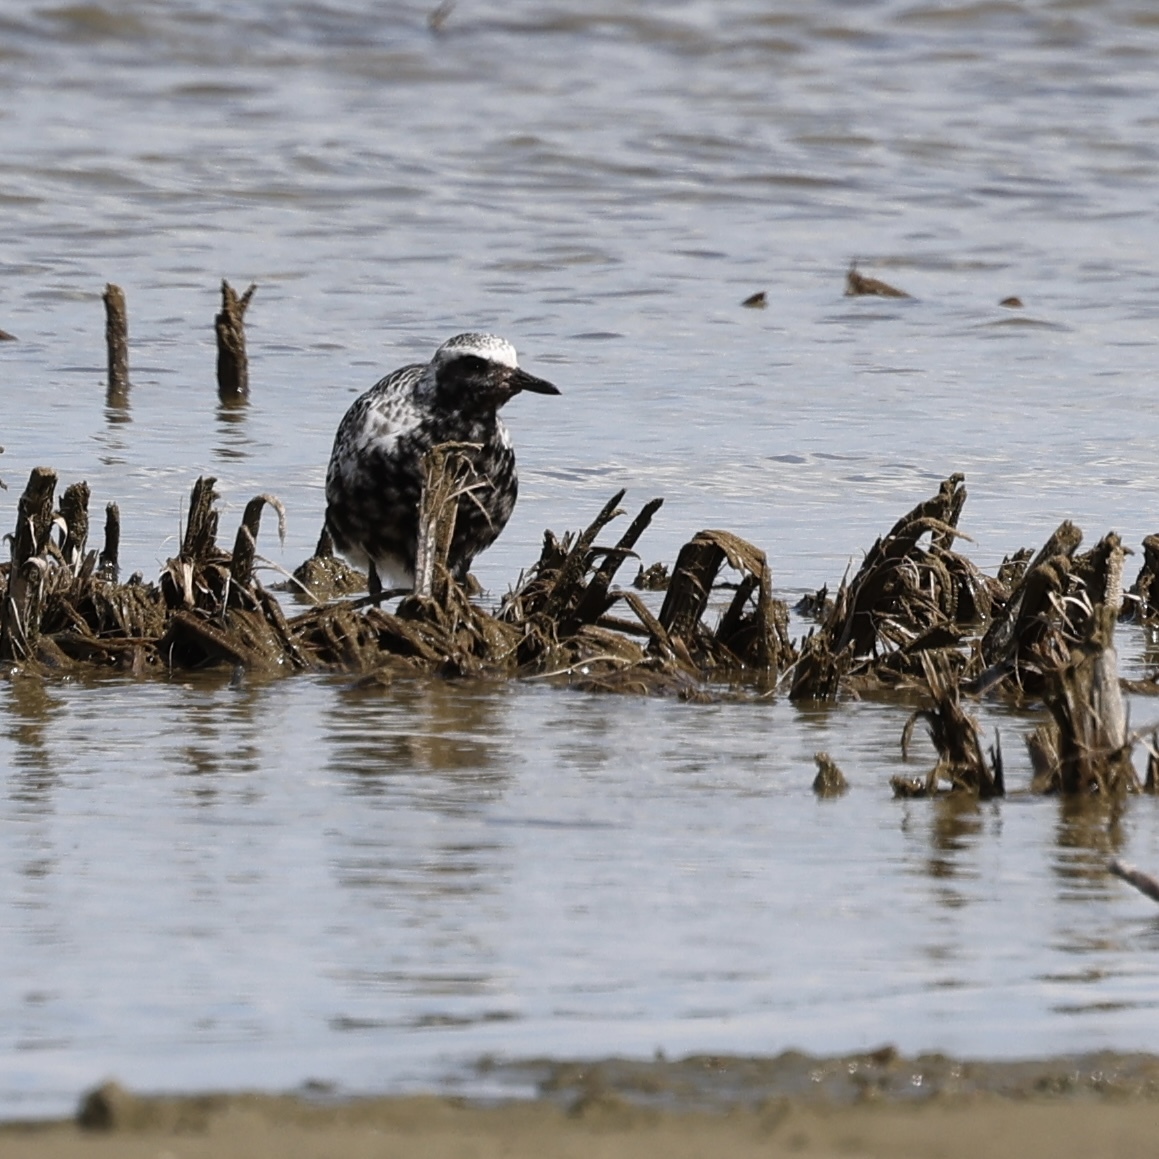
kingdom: Animalia
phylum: Chordata
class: Aves
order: Charadriiformes
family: Charadriidae
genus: Pluvialis
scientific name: Pluvialis squatarola
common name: Grey plover
